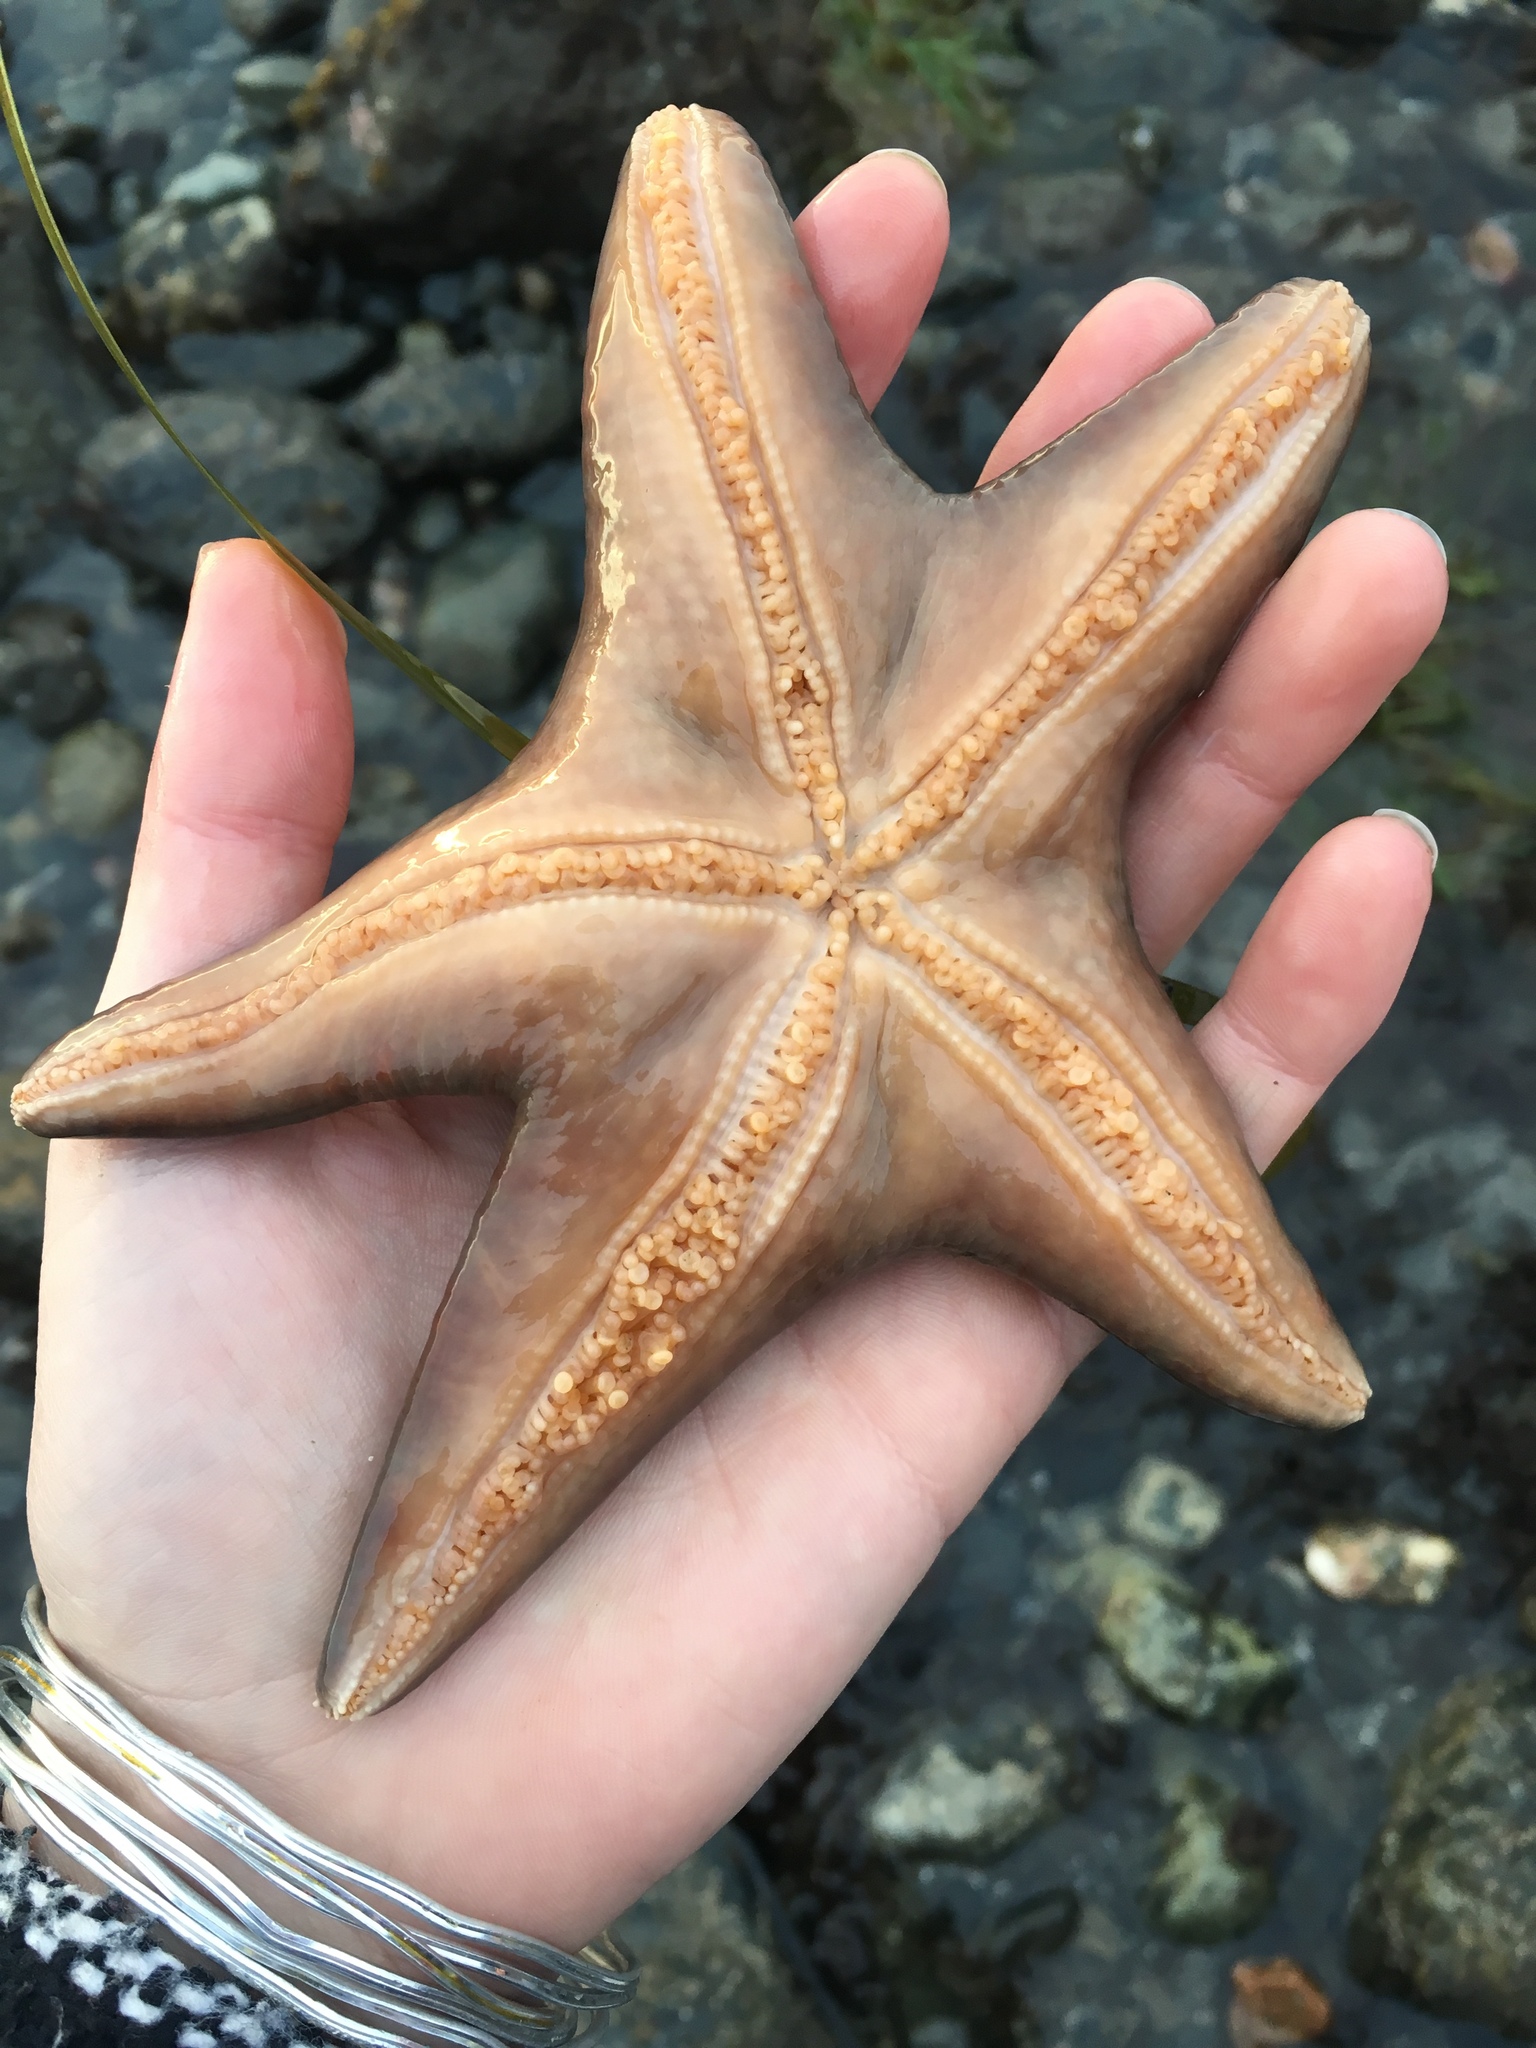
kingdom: Animalia
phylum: Echinodermata
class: Asteroidea
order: Valvatida
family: Asteropseidae
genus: Dermasterias
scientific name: Dermasterias imbricata
